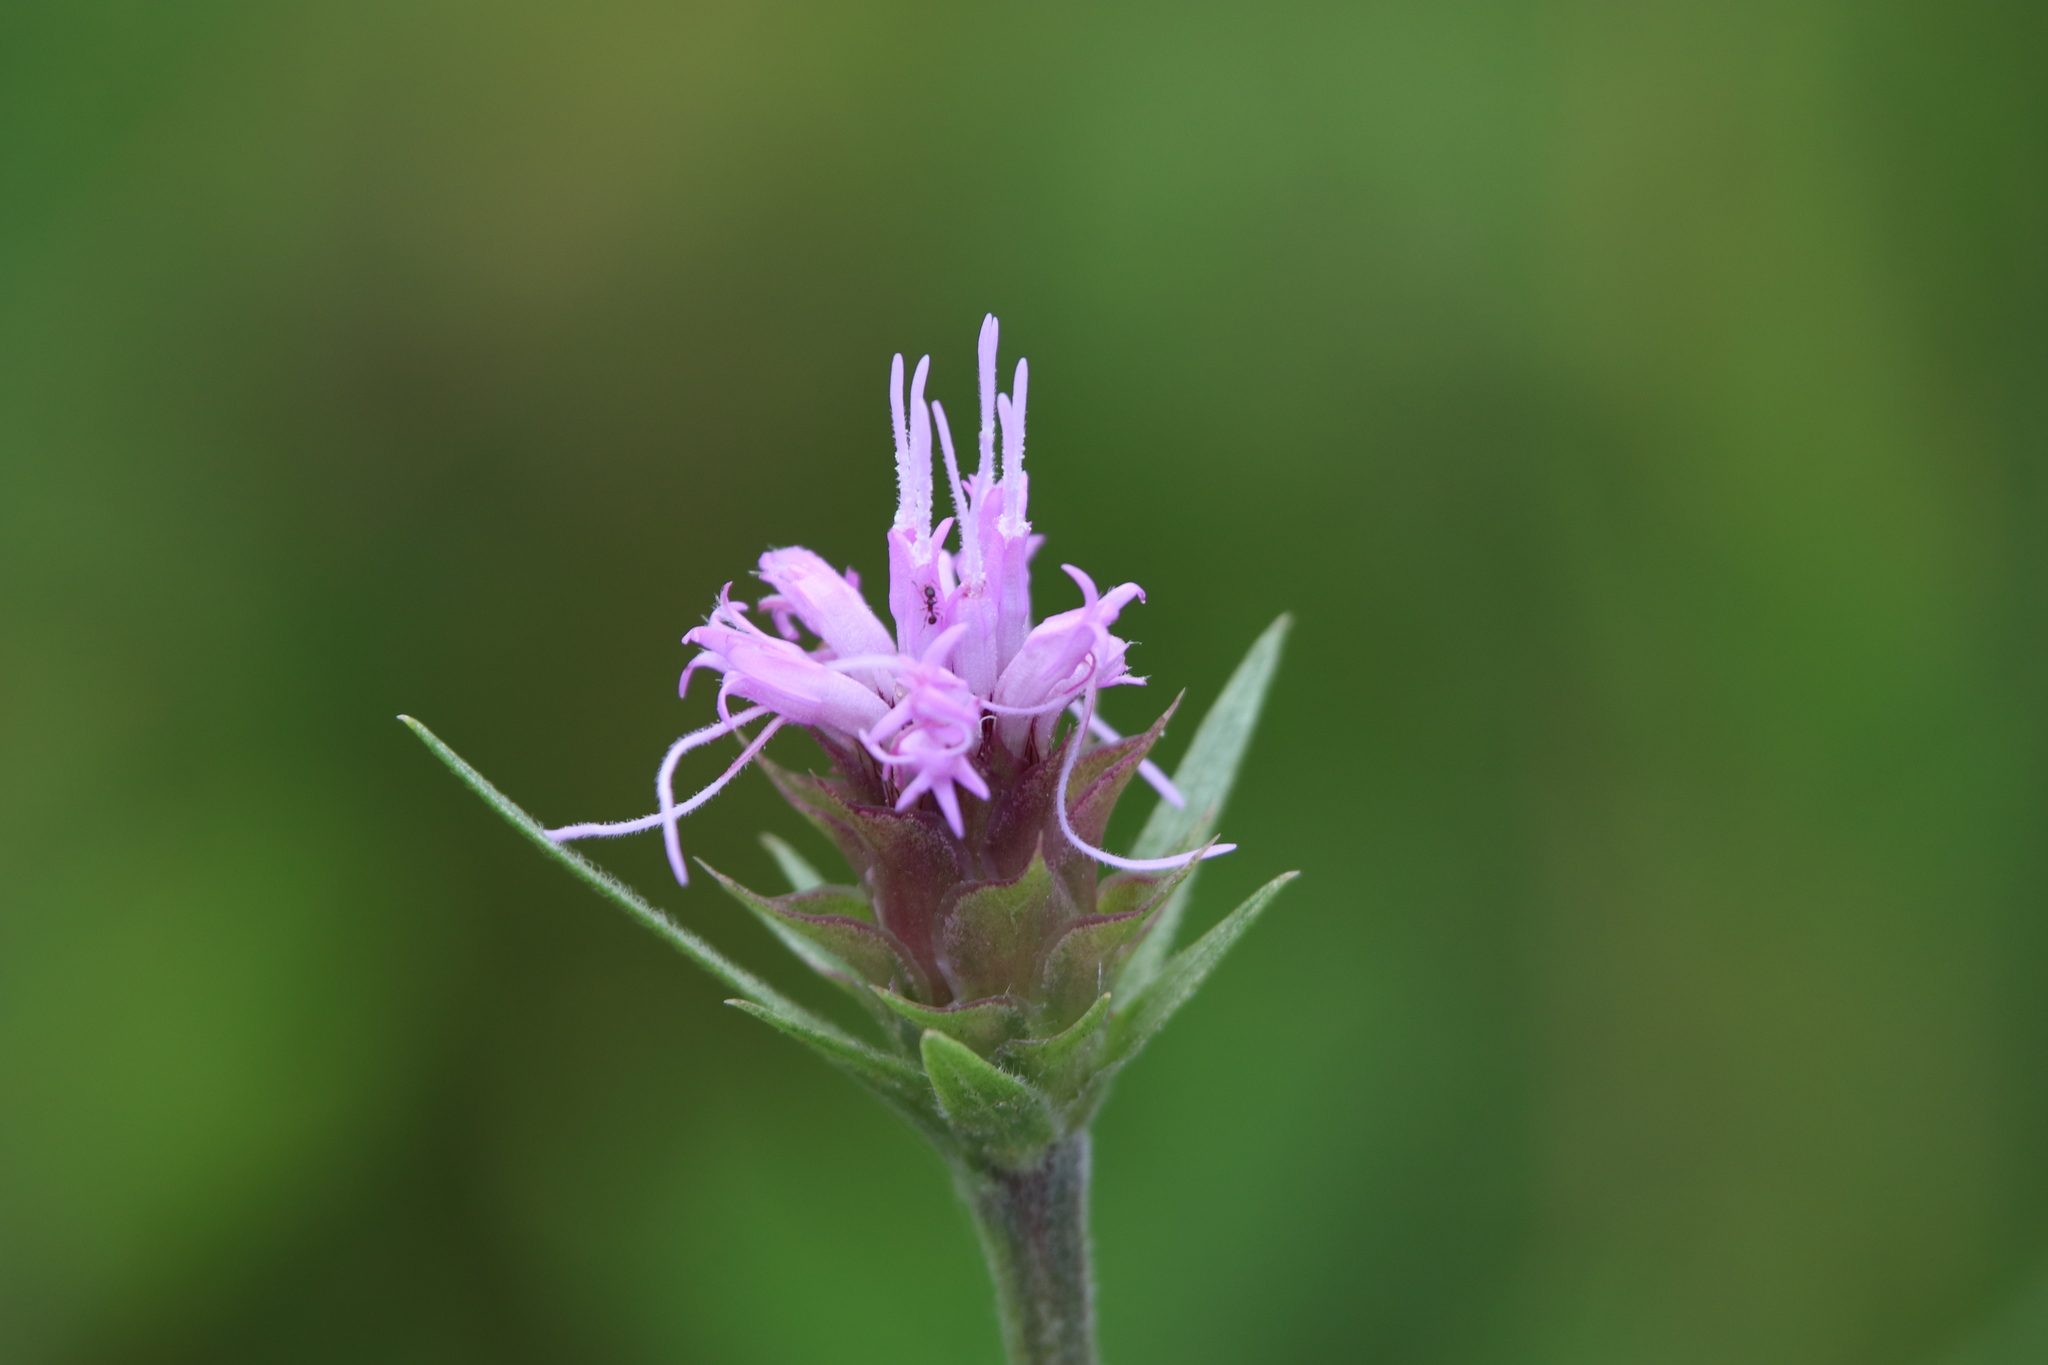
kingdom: Plantae
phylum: Tracheophyta
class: Magnoliopsida
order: Asterales
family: Asteraceae
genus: Liatris
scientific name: Liatris squarrosa
